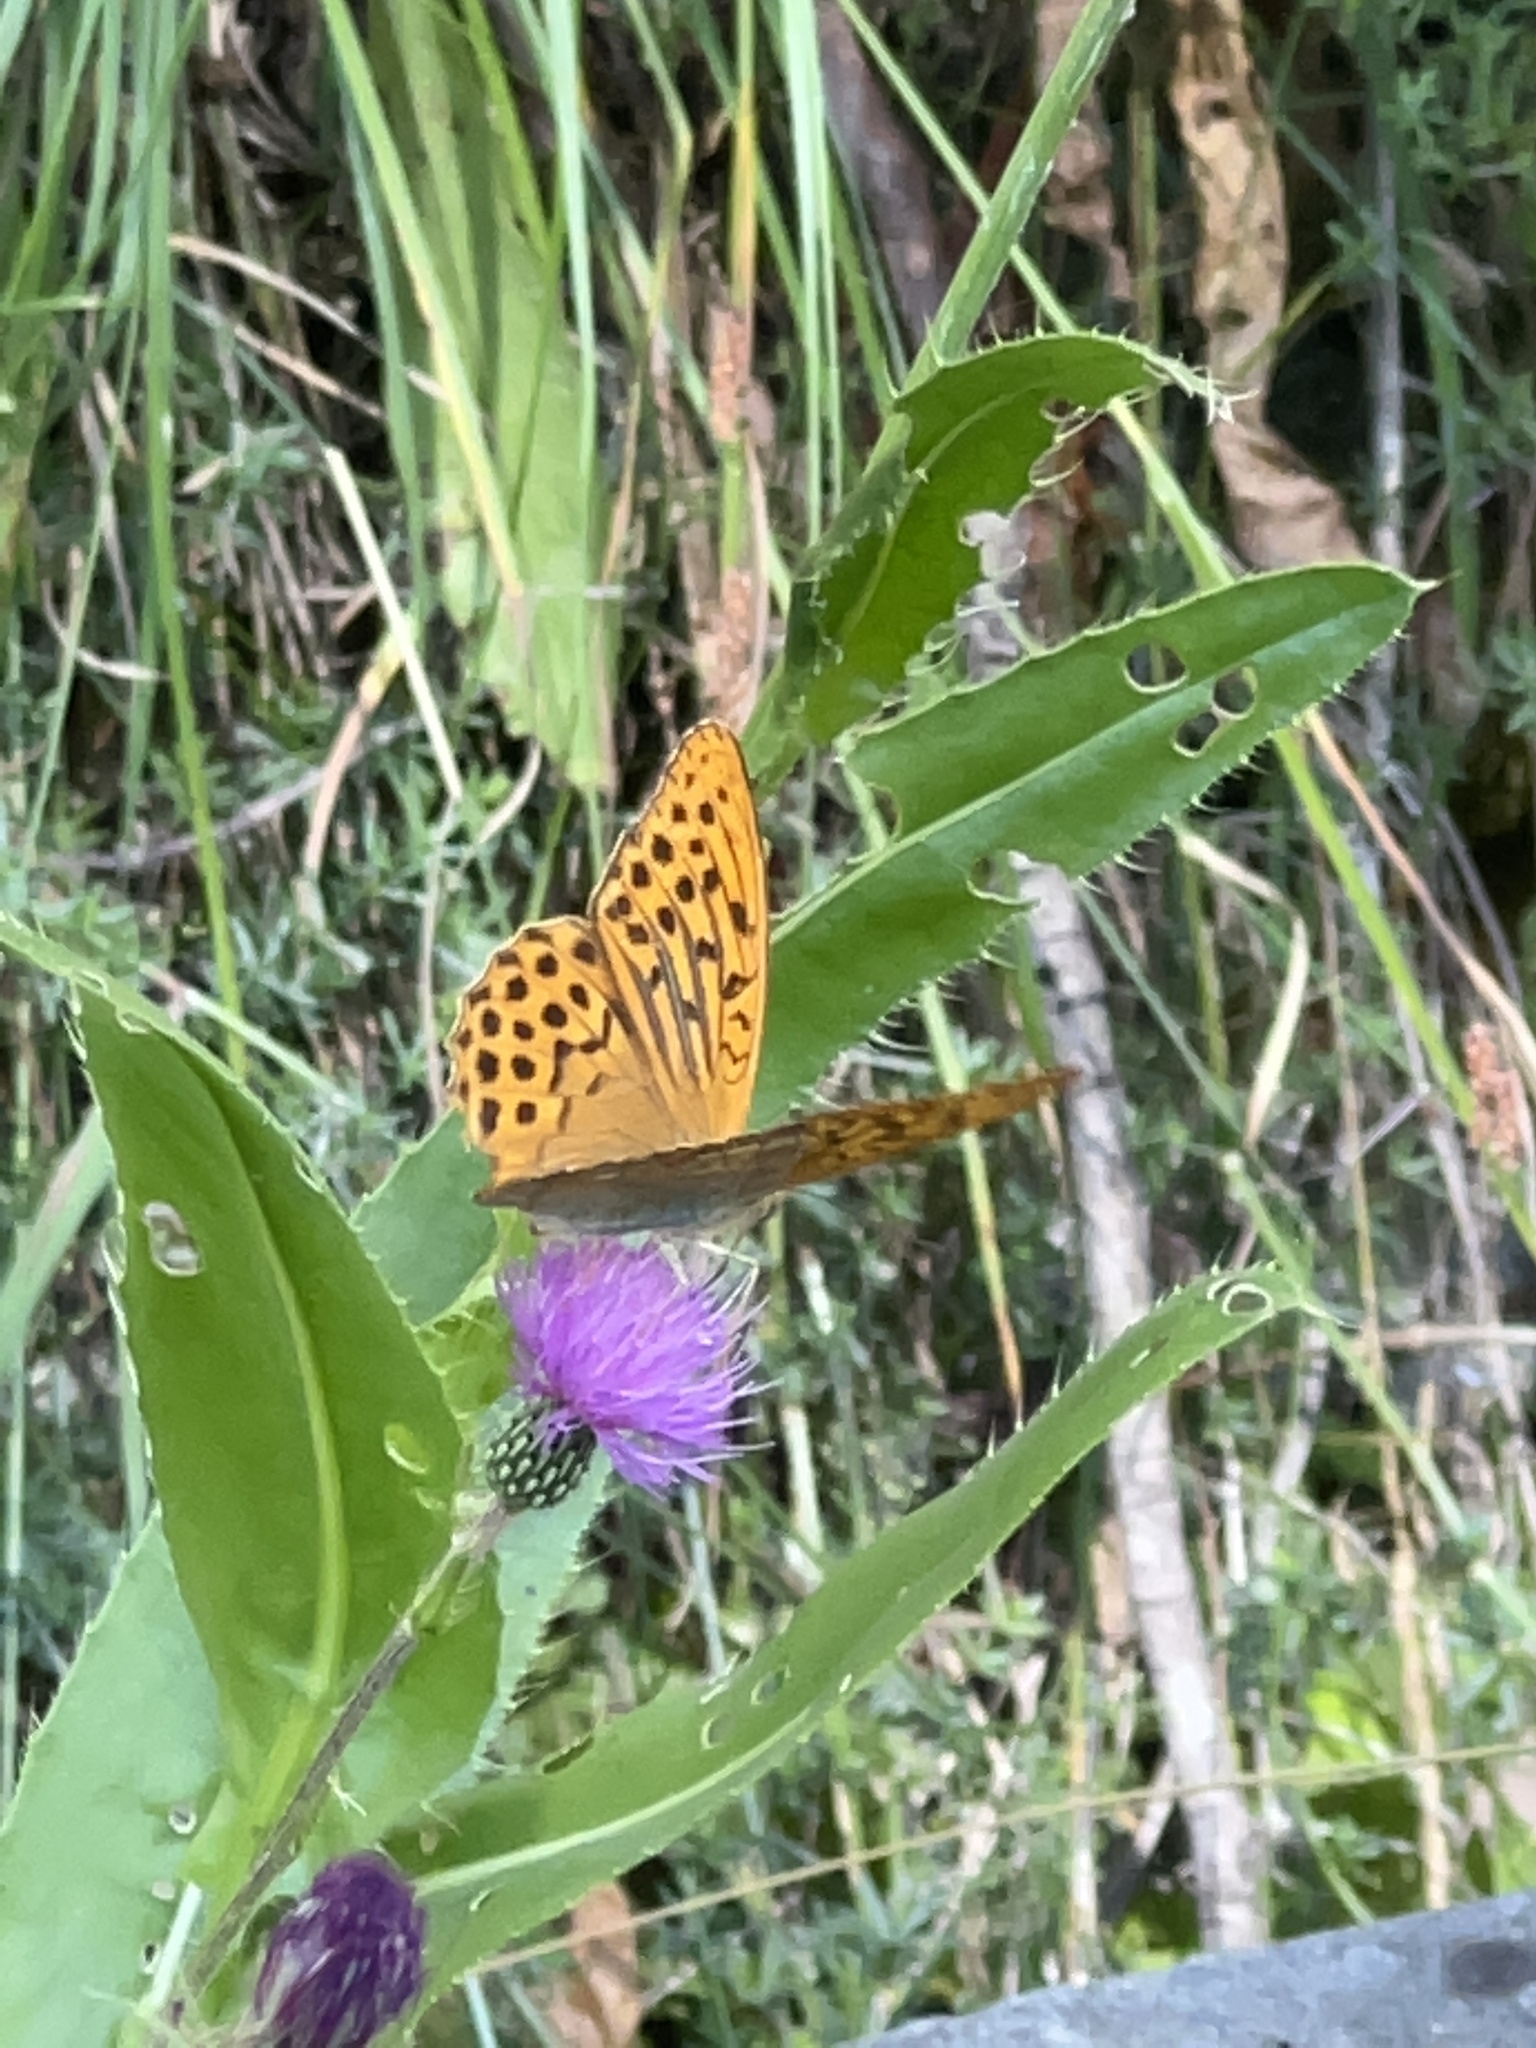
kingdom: Animalia
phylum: Arthropoda
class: Insecta
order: Lepidoptera
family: Nymphalidae
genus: Argynnis
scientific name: Argynnis paphia
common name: Silver-washed fritillary
